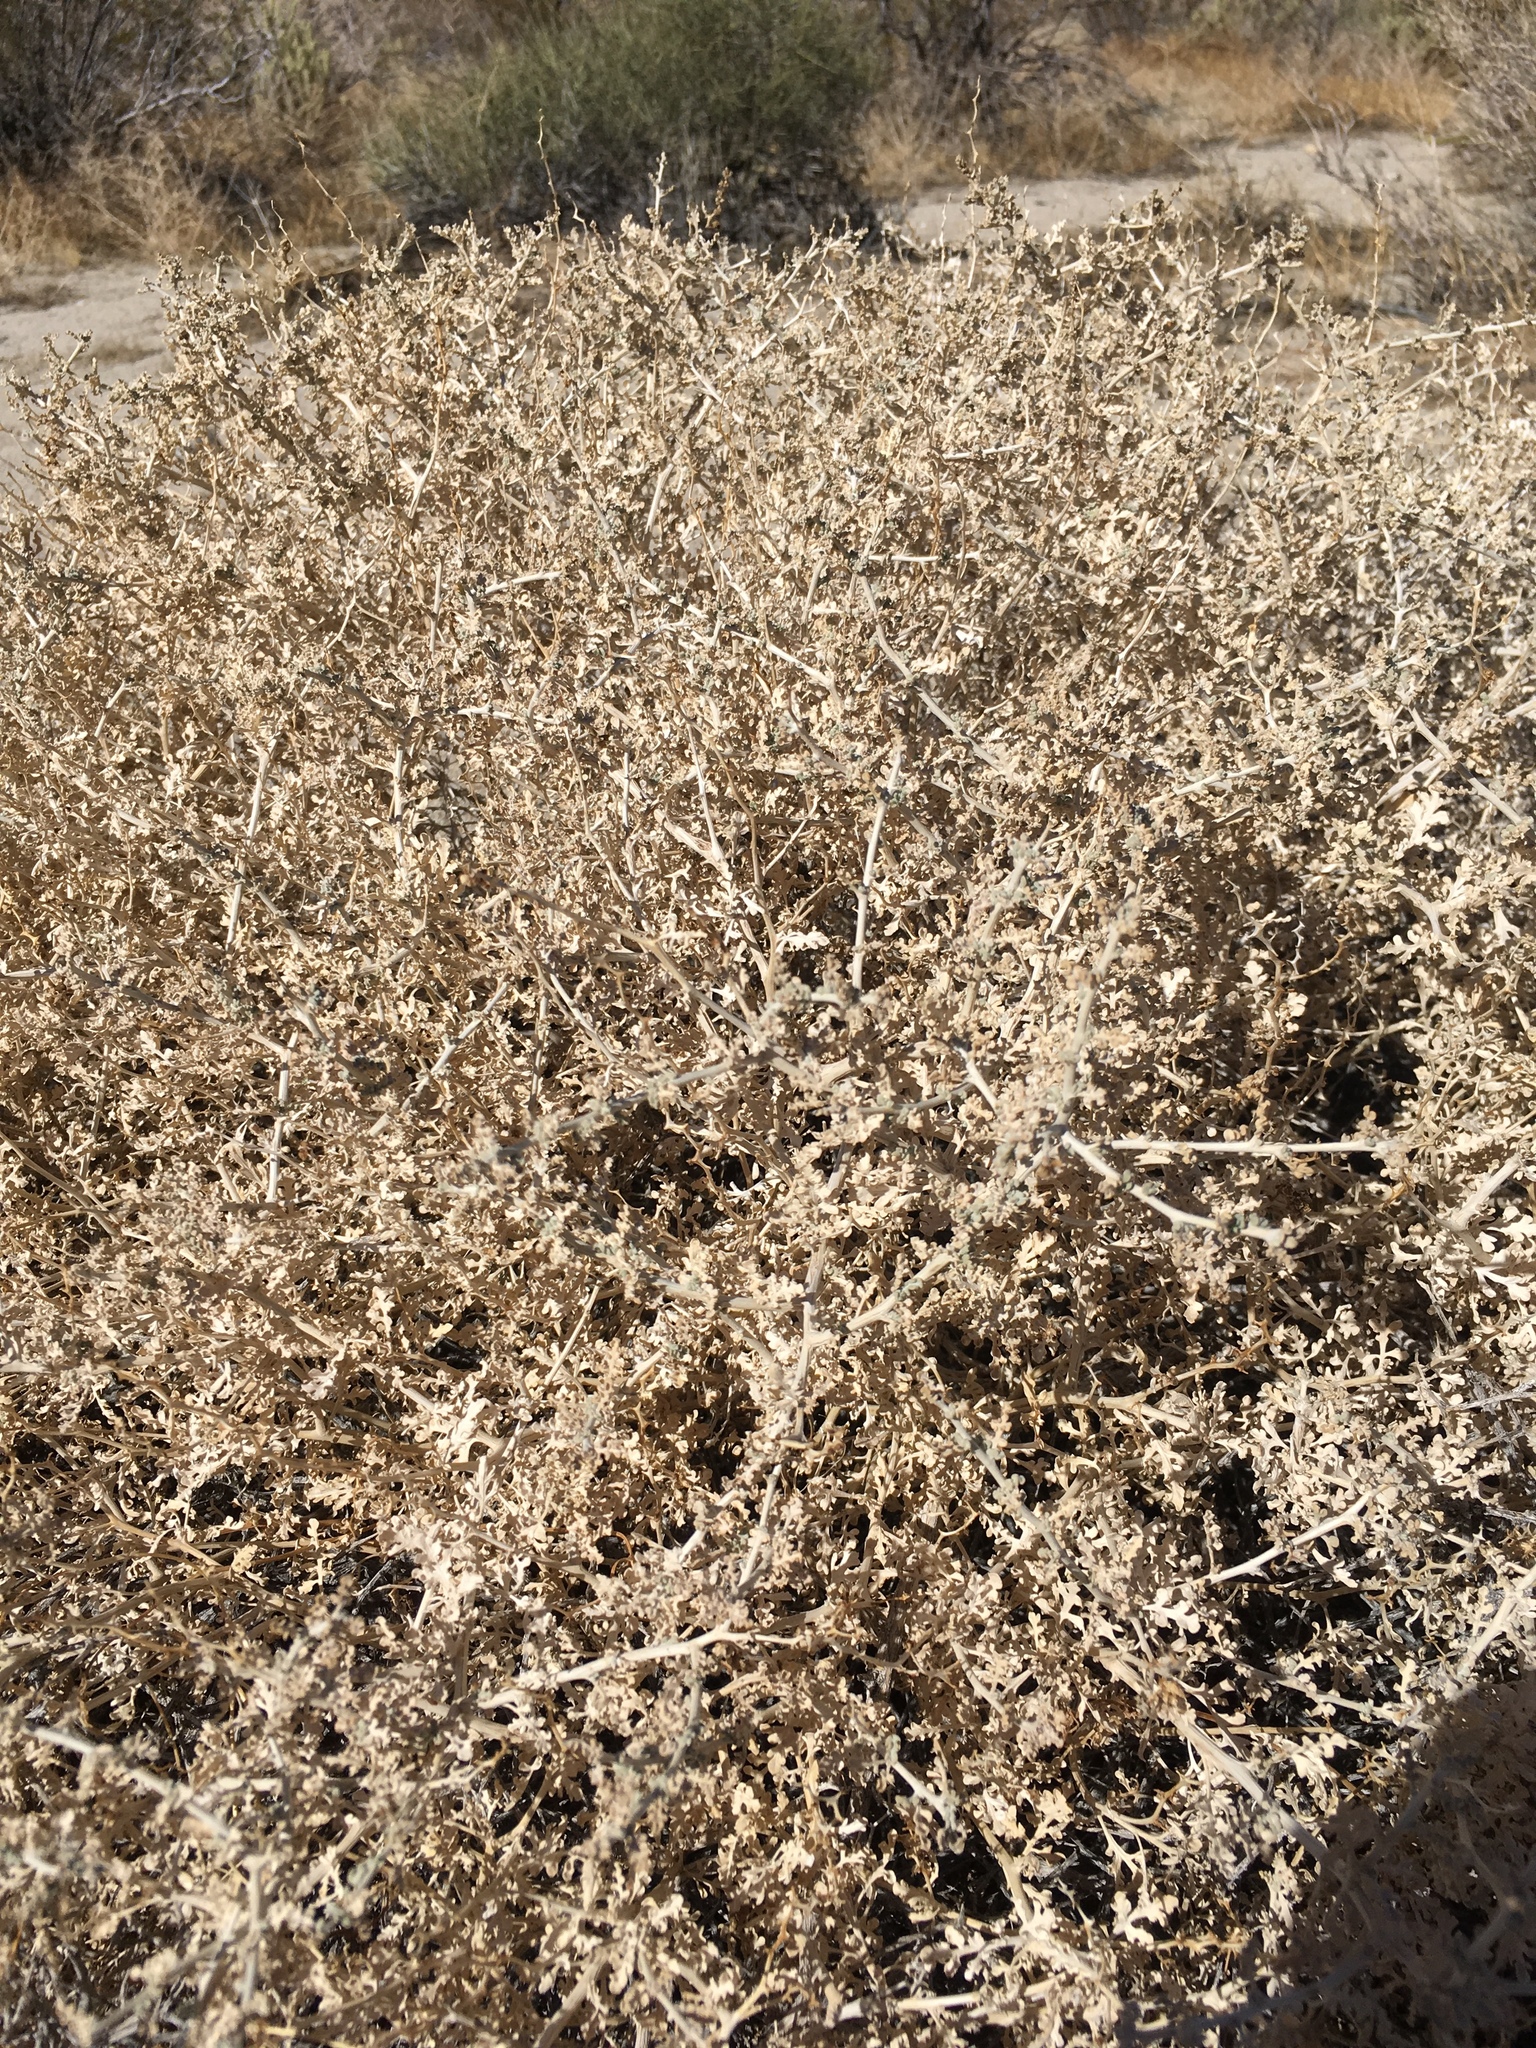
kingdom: Plantae
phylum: Tracheophyta
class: Magnoliopsida
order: Asterales
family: Asteraceae
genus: Ambrosia
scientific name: Ambrosia dumosa
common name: Bur-sage
